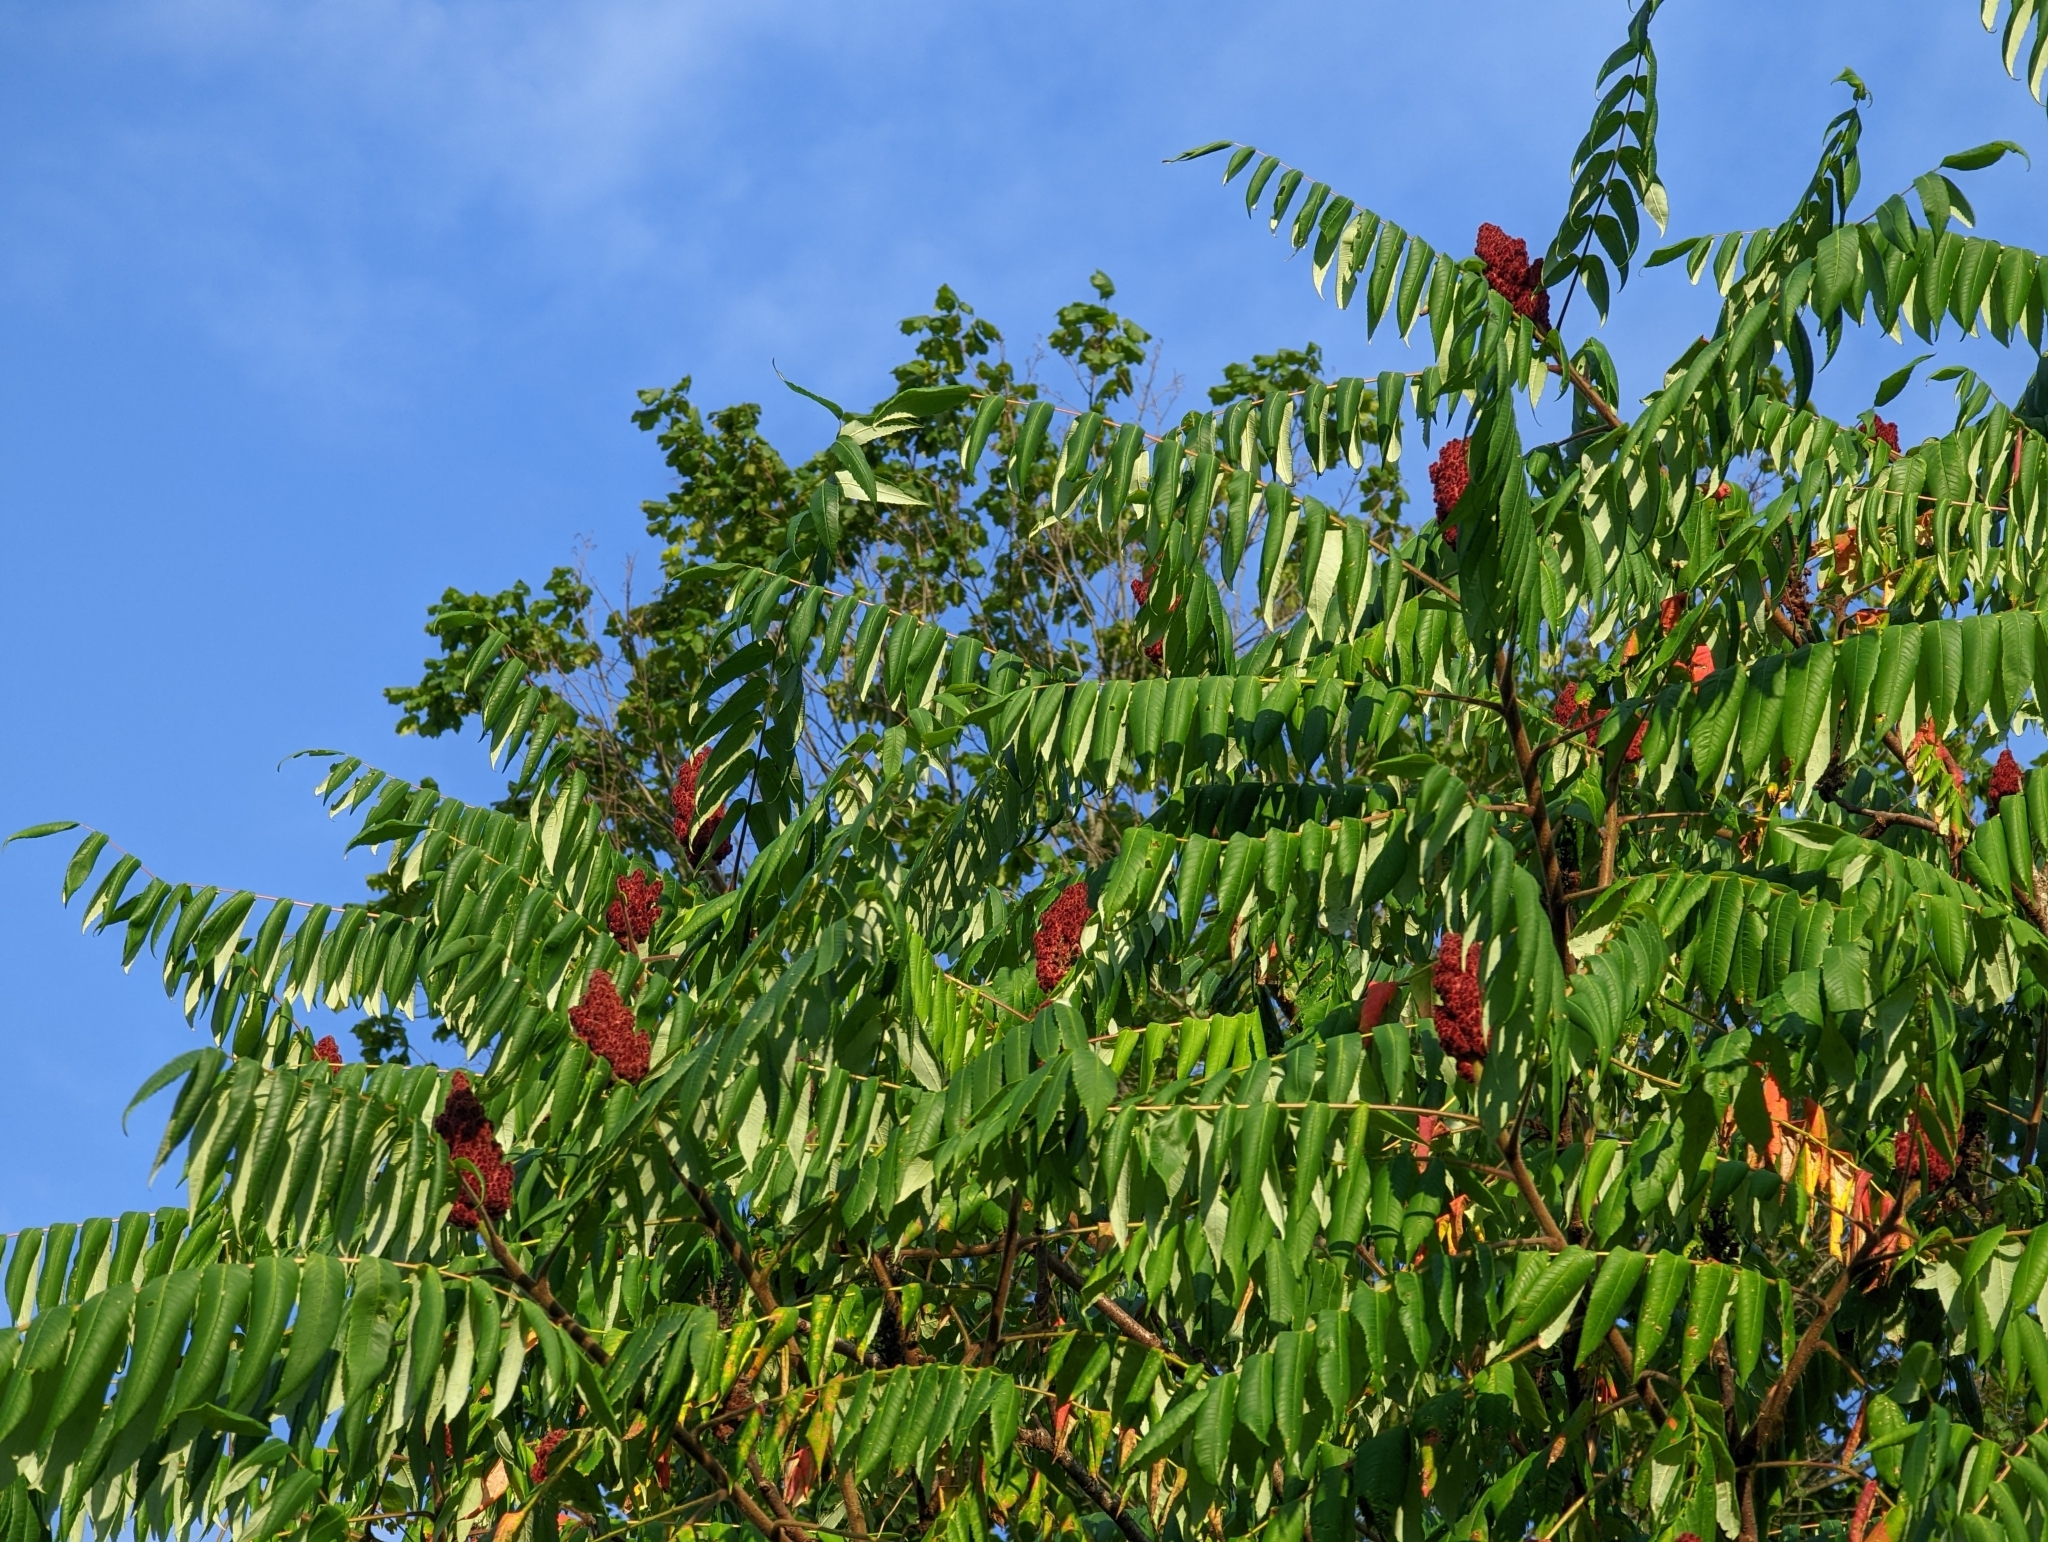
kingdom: Plantae
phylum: Tracheophyta
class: Magnoliopsida
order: Sapindales
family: Anacardiaceae
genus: Rhus
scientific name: Rhus typhina
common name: Staghorn sumac
